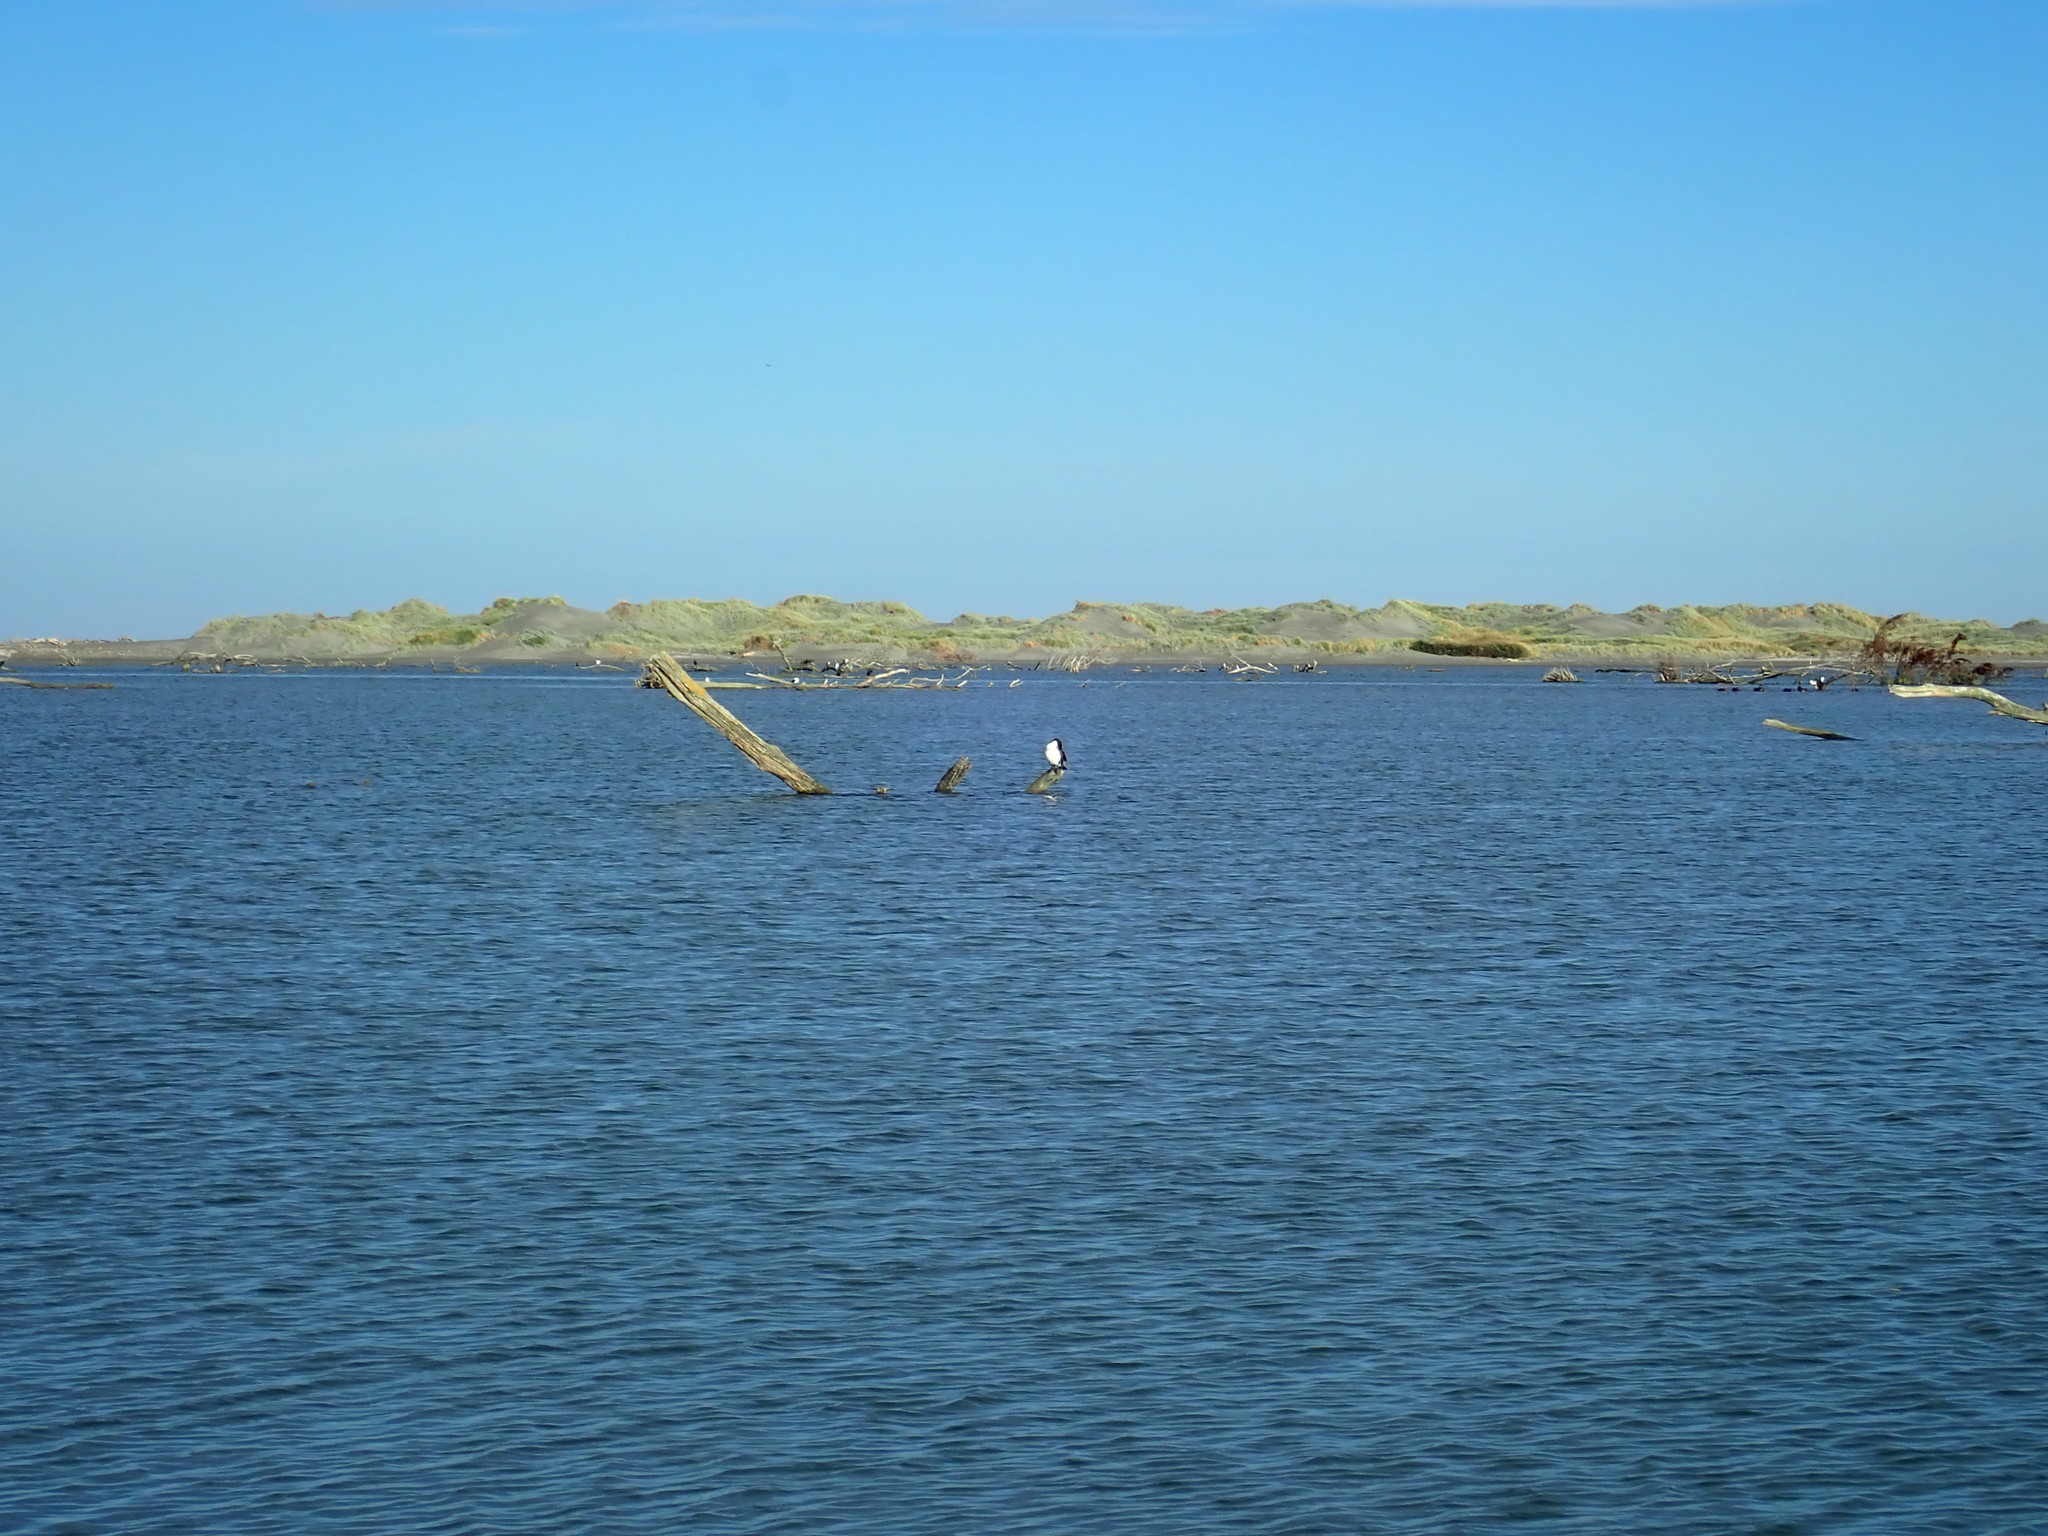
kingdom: Animalia
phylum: Chordata
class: Aves
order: Suliformes
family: Phalacrocoracidae
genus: Phalacrocorax
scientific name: Phalacrocorax varius
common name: Pied cormorant
